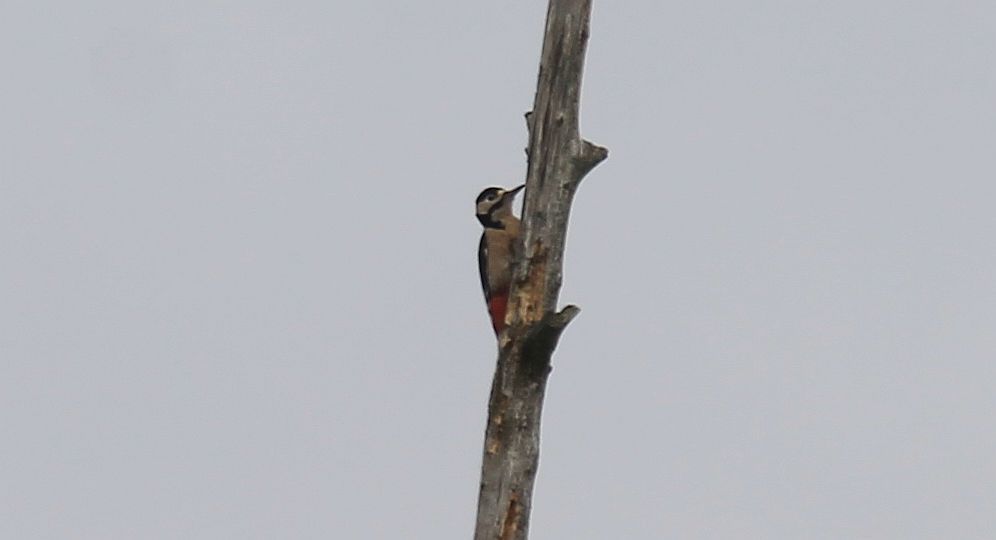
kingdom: Animalia
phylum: Chordata
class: Aves
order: Piciformes
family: Picidae
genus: Dendrocopos
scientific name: Dendrocopos major
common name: Great spotted woodpecker
